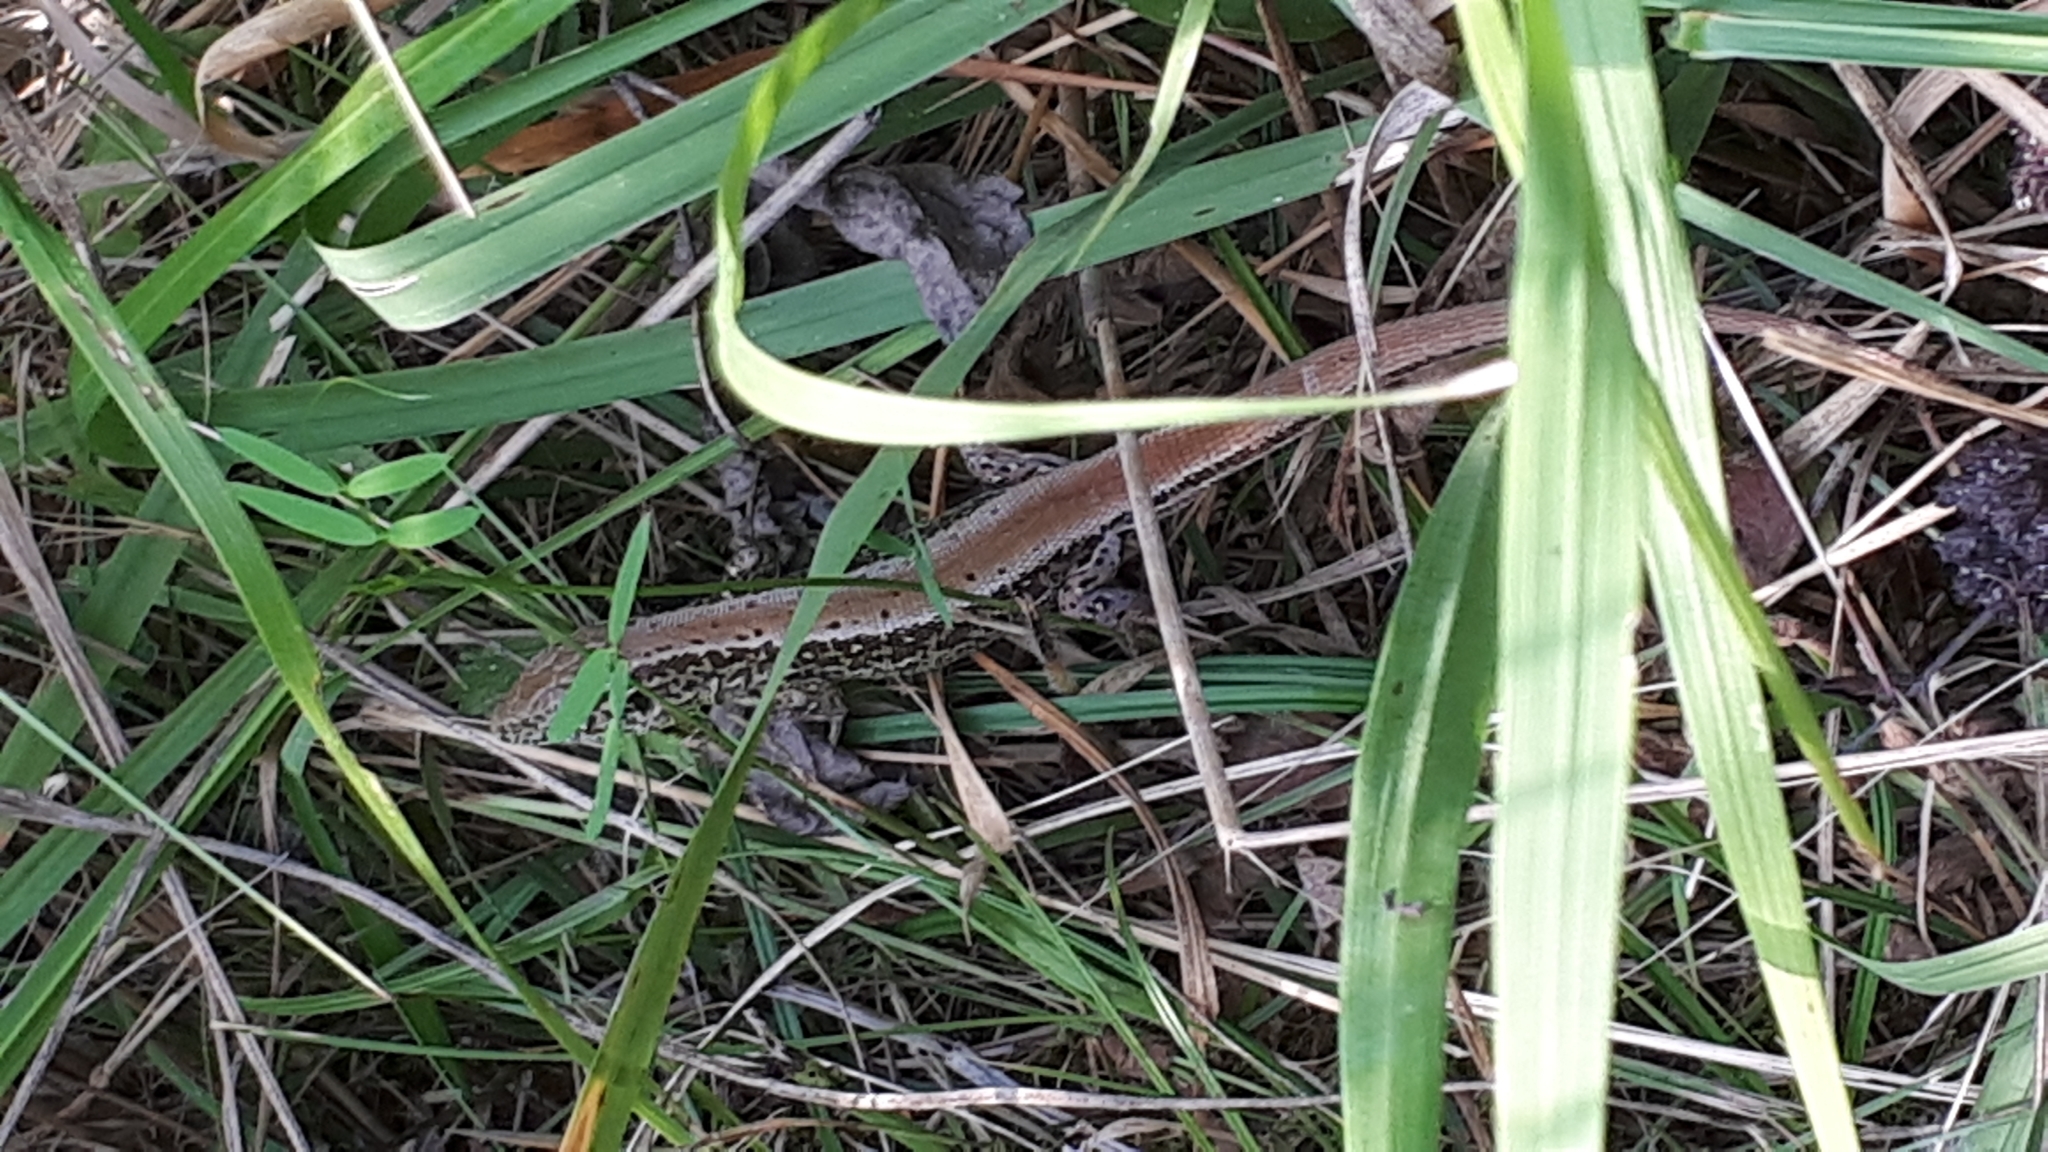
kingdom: Animalia
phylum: Chordata
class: Squamata
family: Lacertidae
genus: Lacerta
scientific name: Lacerta agilis
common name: Sand lizard
